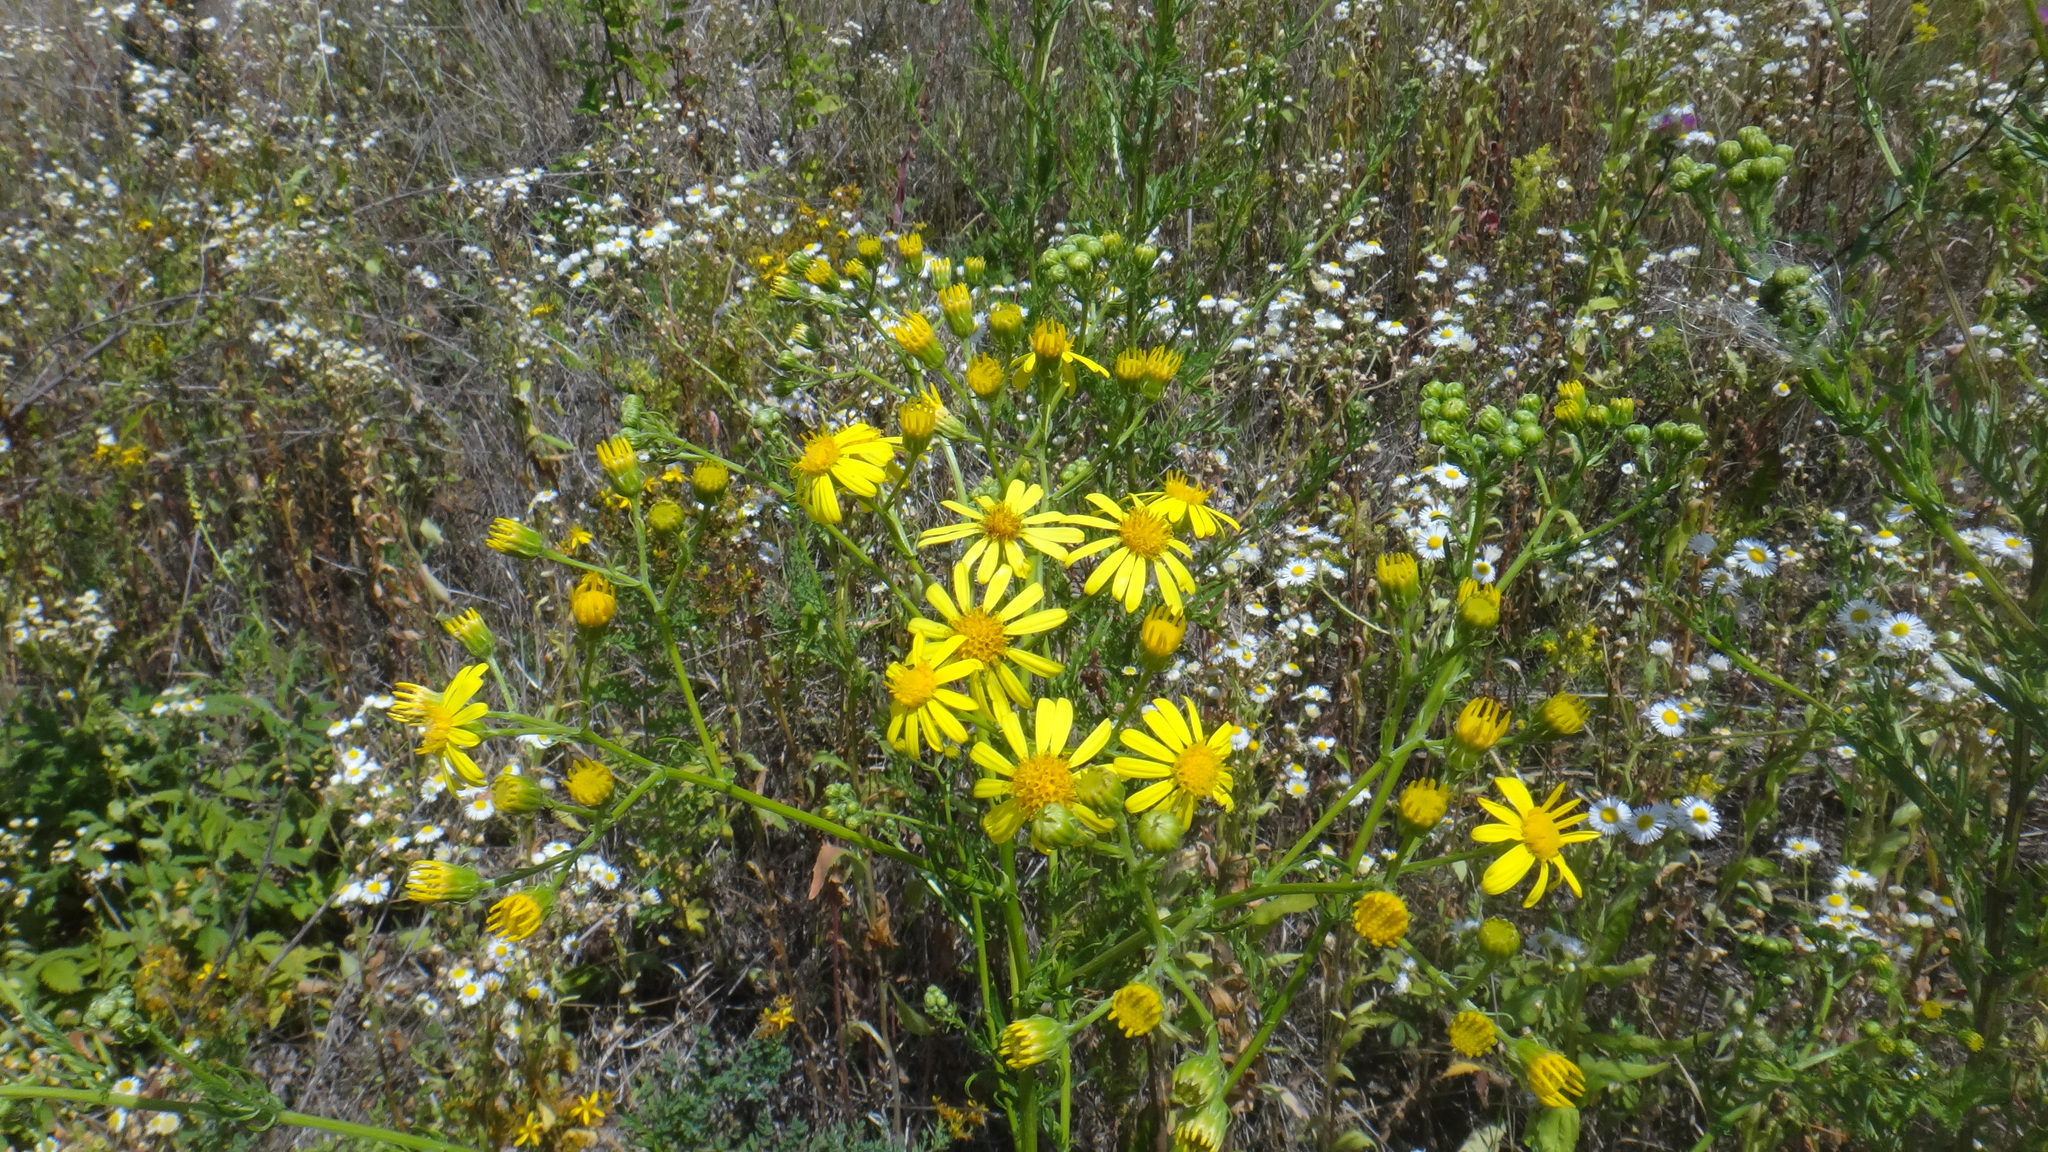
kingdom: Plantae
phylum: Tracheophyta
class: Magnoliopsida
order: Asterales
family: Asteraceae
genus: Jacobaea
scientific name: Jacobaea erucifolia
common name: Hoary ragwort
